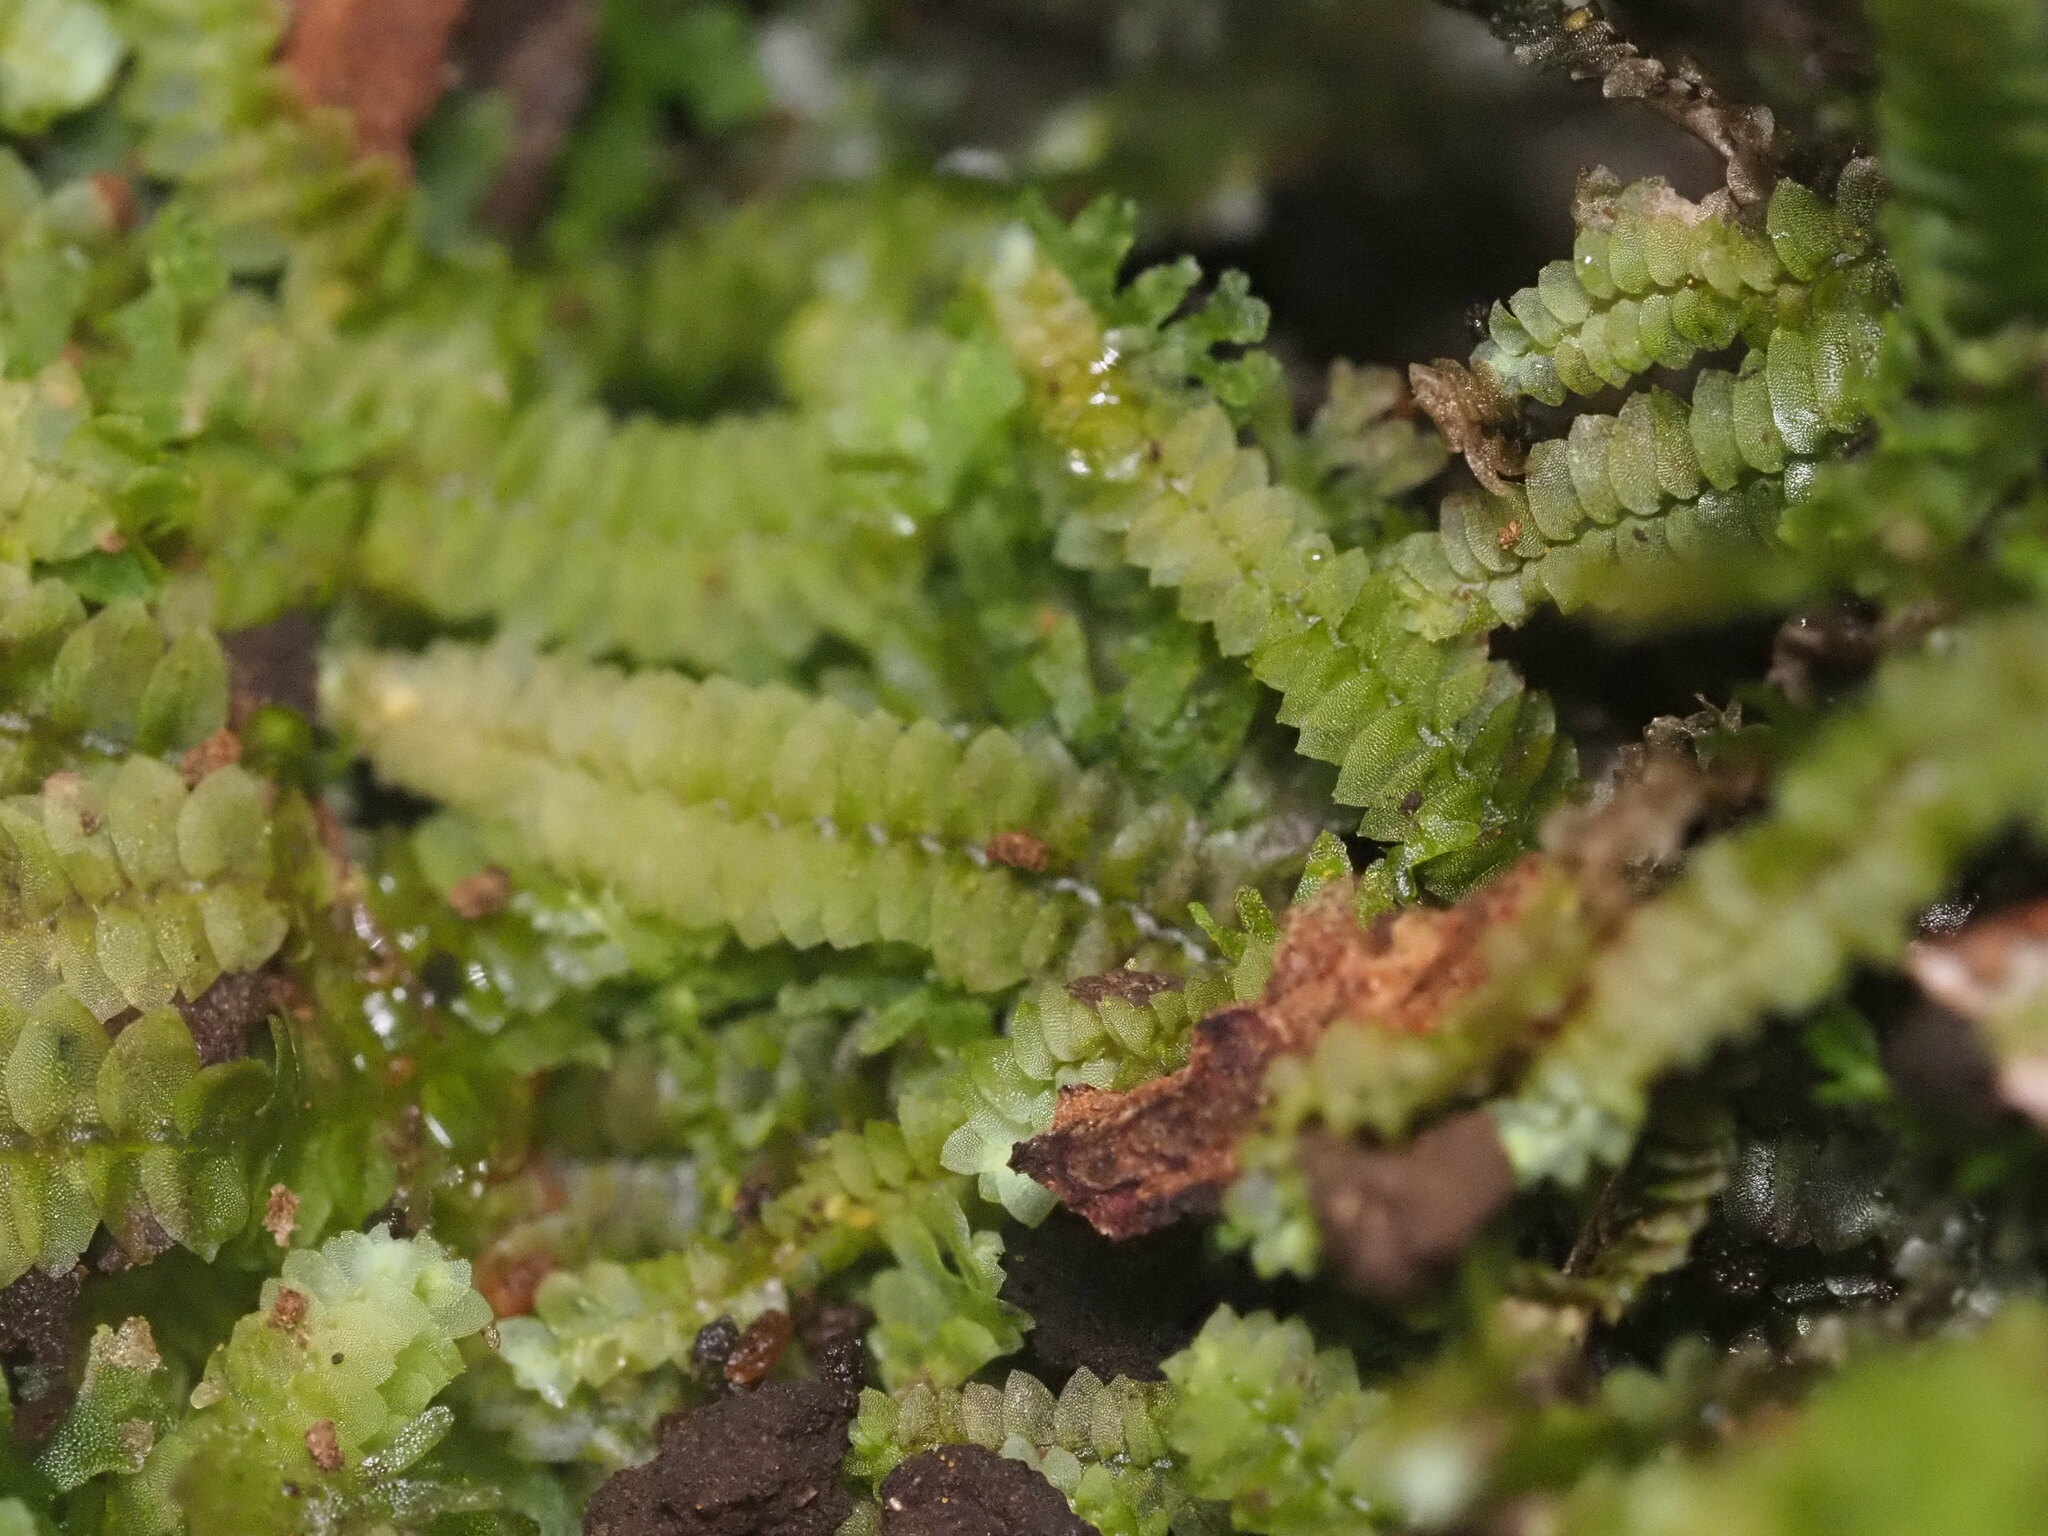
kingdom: Plantae
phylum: Marchantiophyta
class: Jungermanniopsida
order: Jungermanniales
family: Calypogeiaceae
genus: Calypogeia
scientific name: Calypogeia tosana
